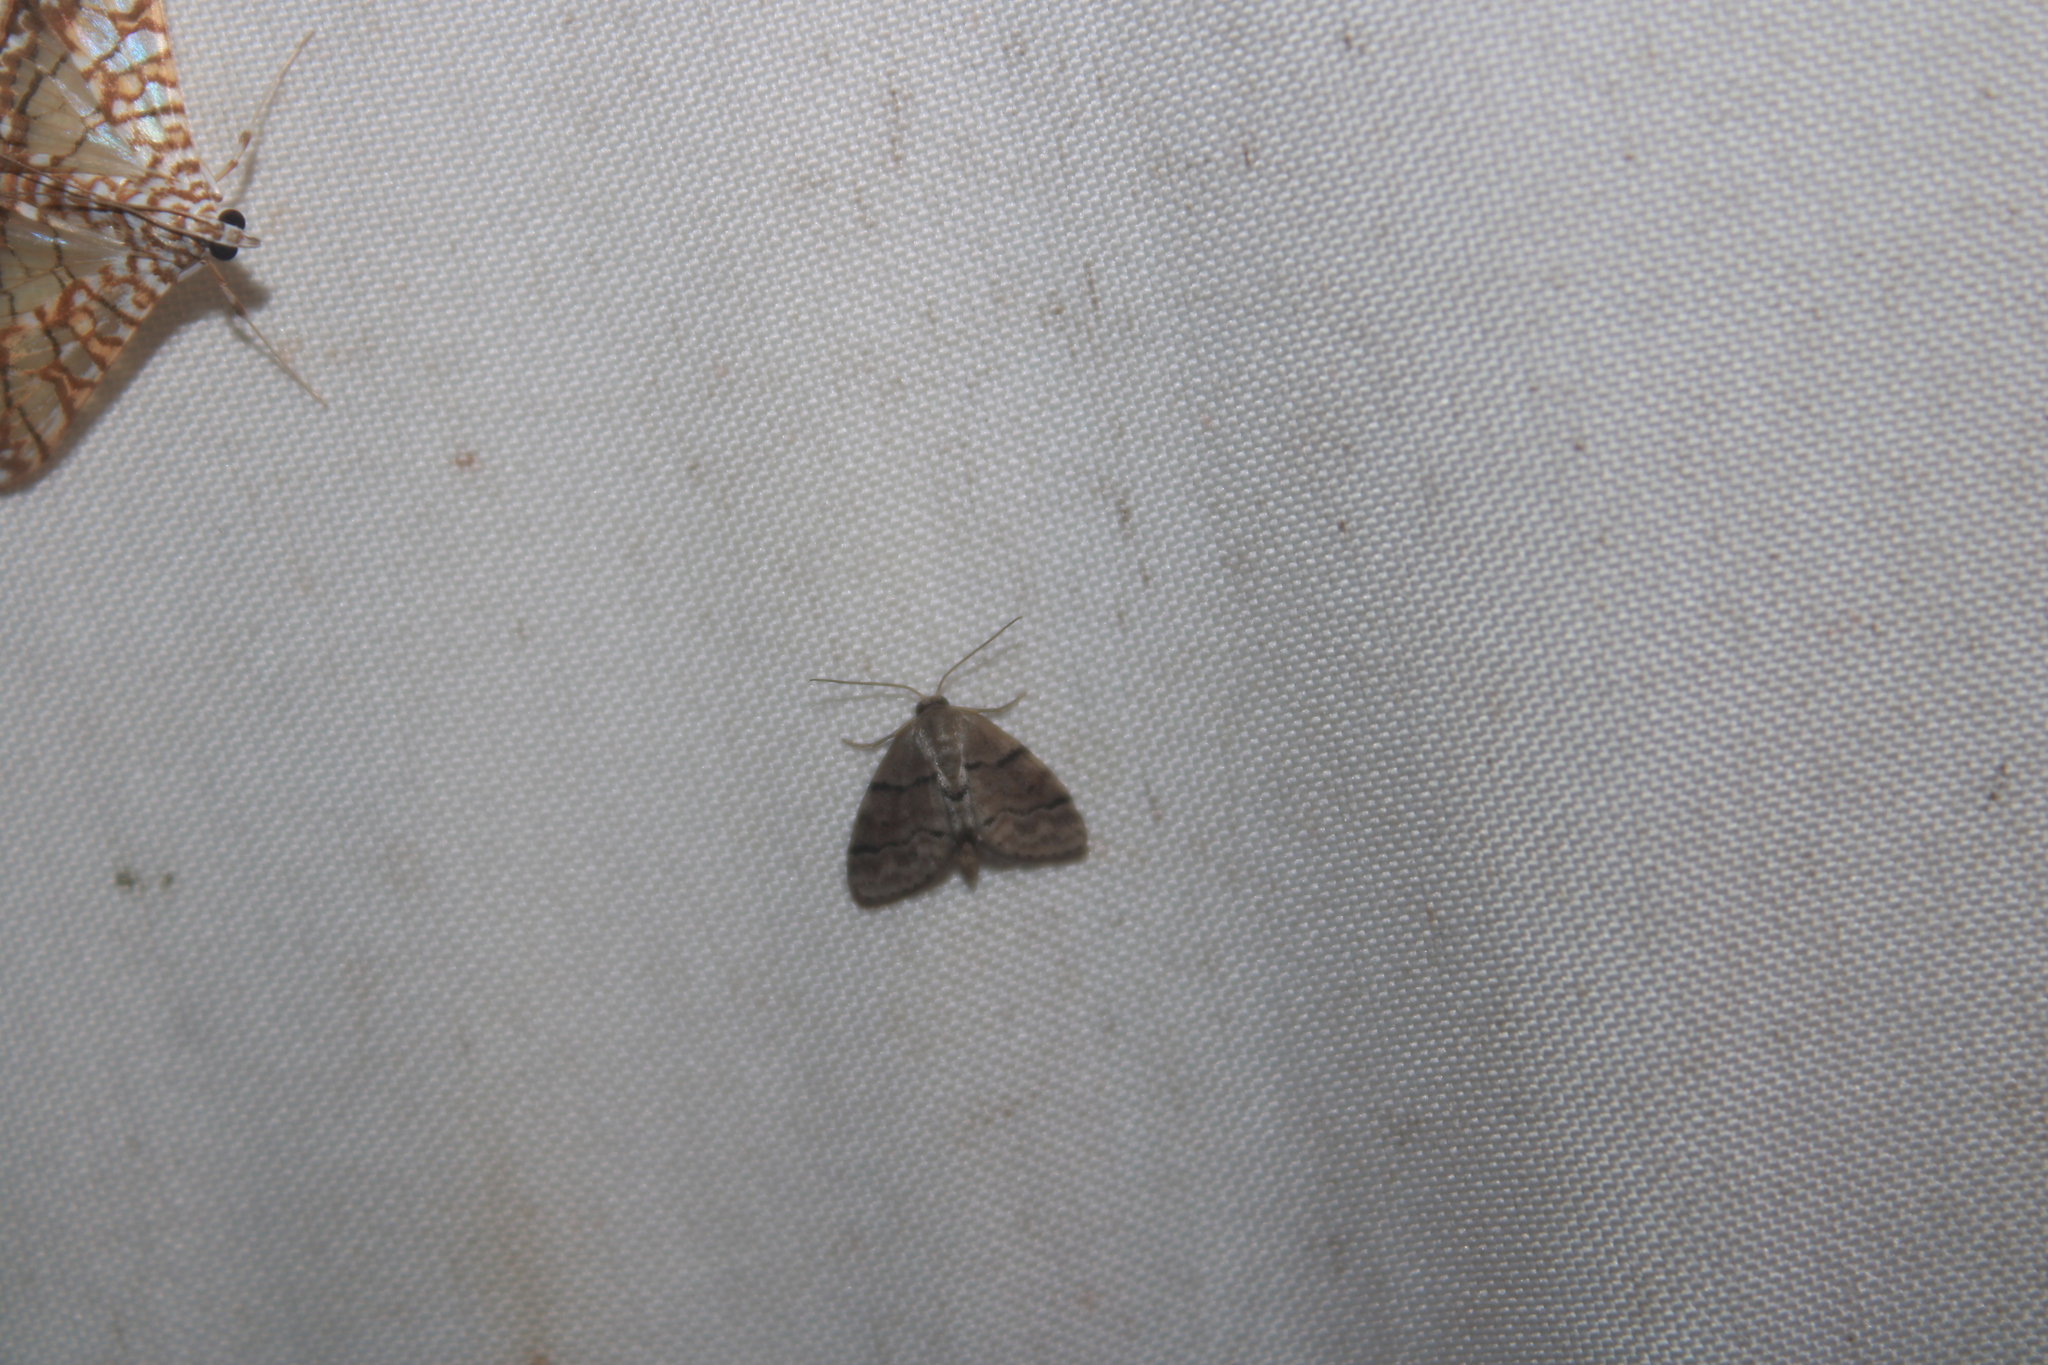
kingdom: Animalia
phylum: Arthropoda
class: Insecta
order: Lepidoptera
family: Geometridae
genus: Idaea
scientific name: Idaea insulensis
